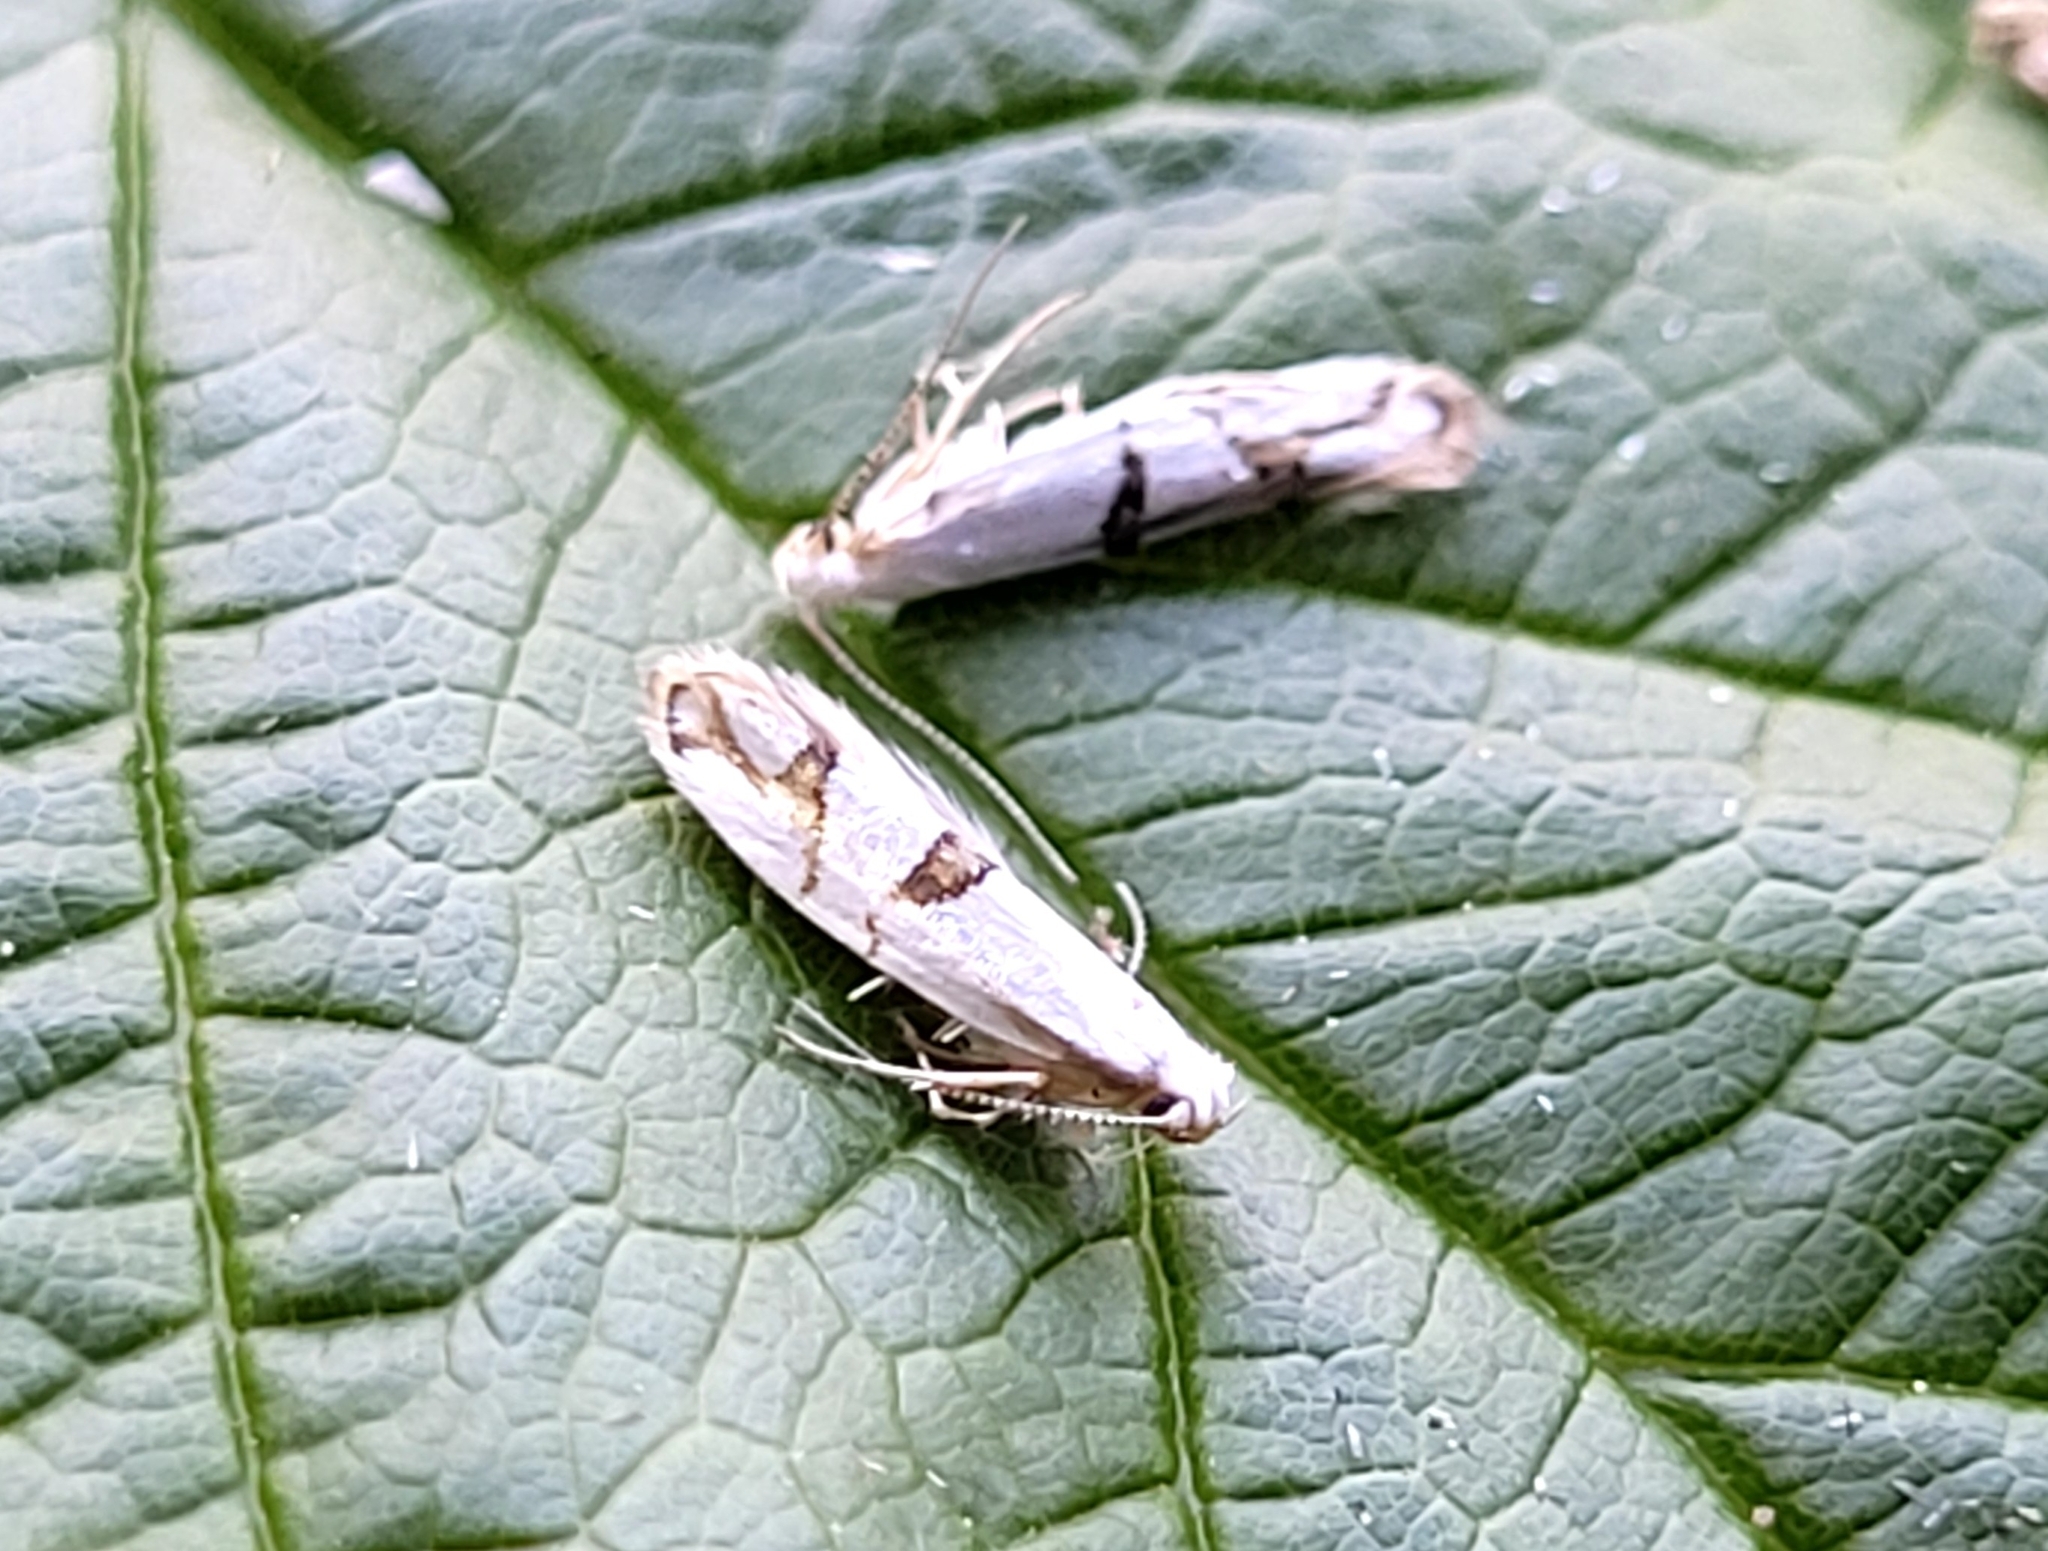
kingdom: Animalia
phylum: Arthropoda
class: Insecta
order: Lepidoptera
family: Argyresthiidae
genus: Argyresthia
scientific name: Argyresthia oreasella
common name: Cherry shoot borer moth
